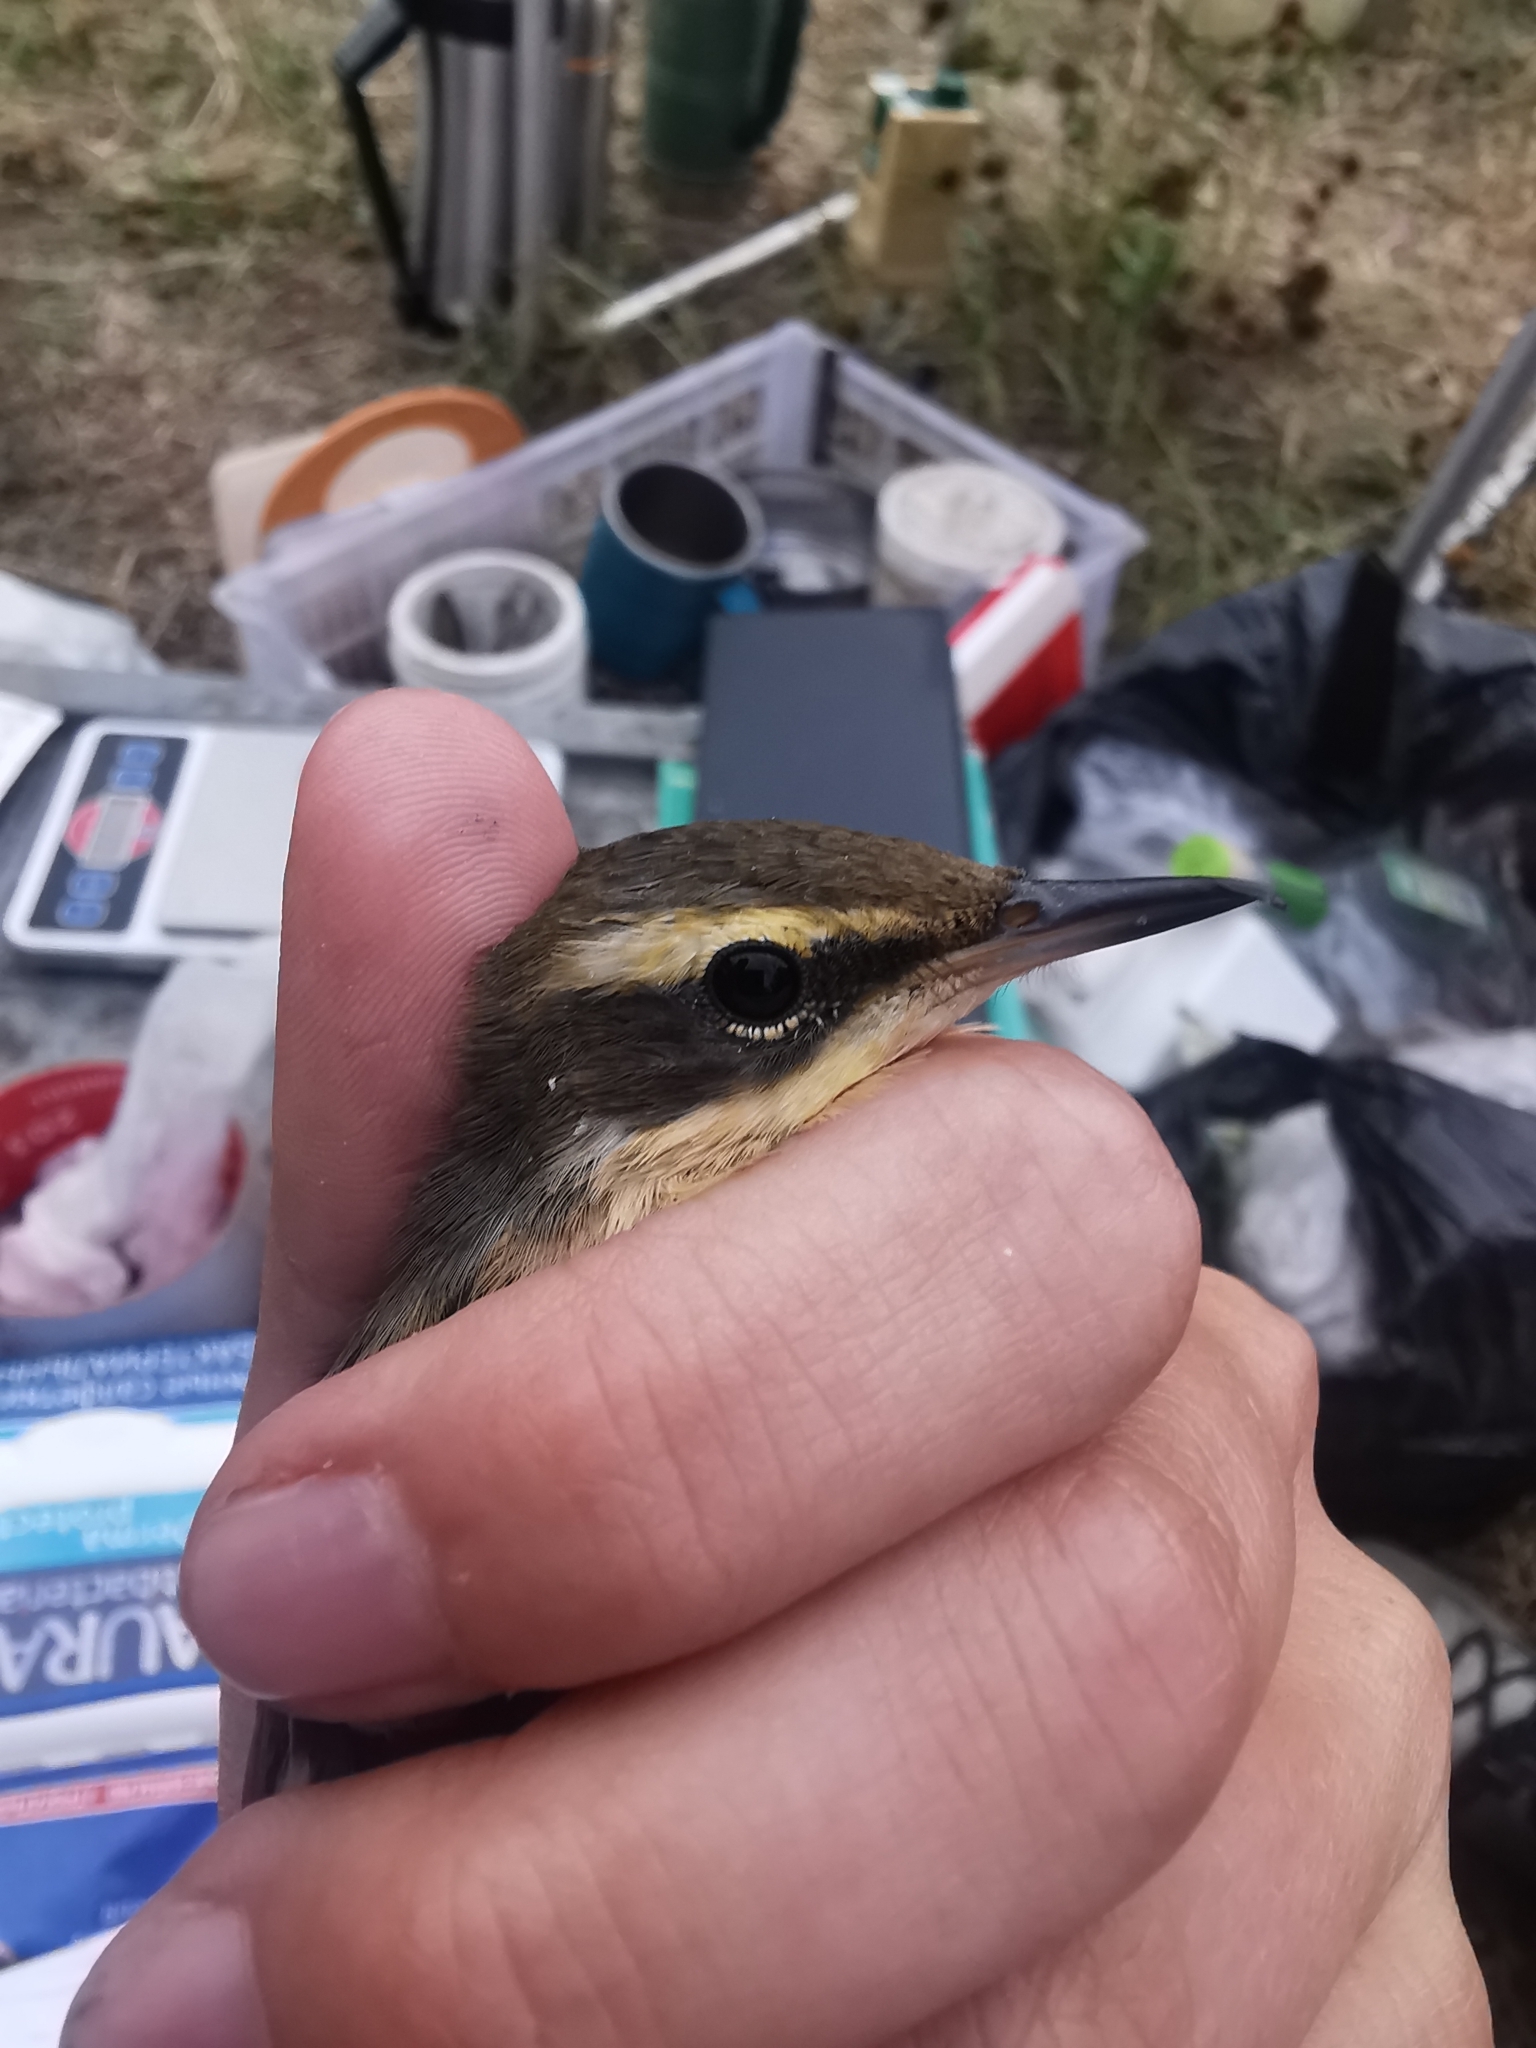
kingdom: Animalia
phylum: Chordata
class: Aves
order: Passeriformes
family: Motacillidae
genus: Motacilla
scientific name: Motacilla tschutschensis
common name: Eastern yellow wagtail
